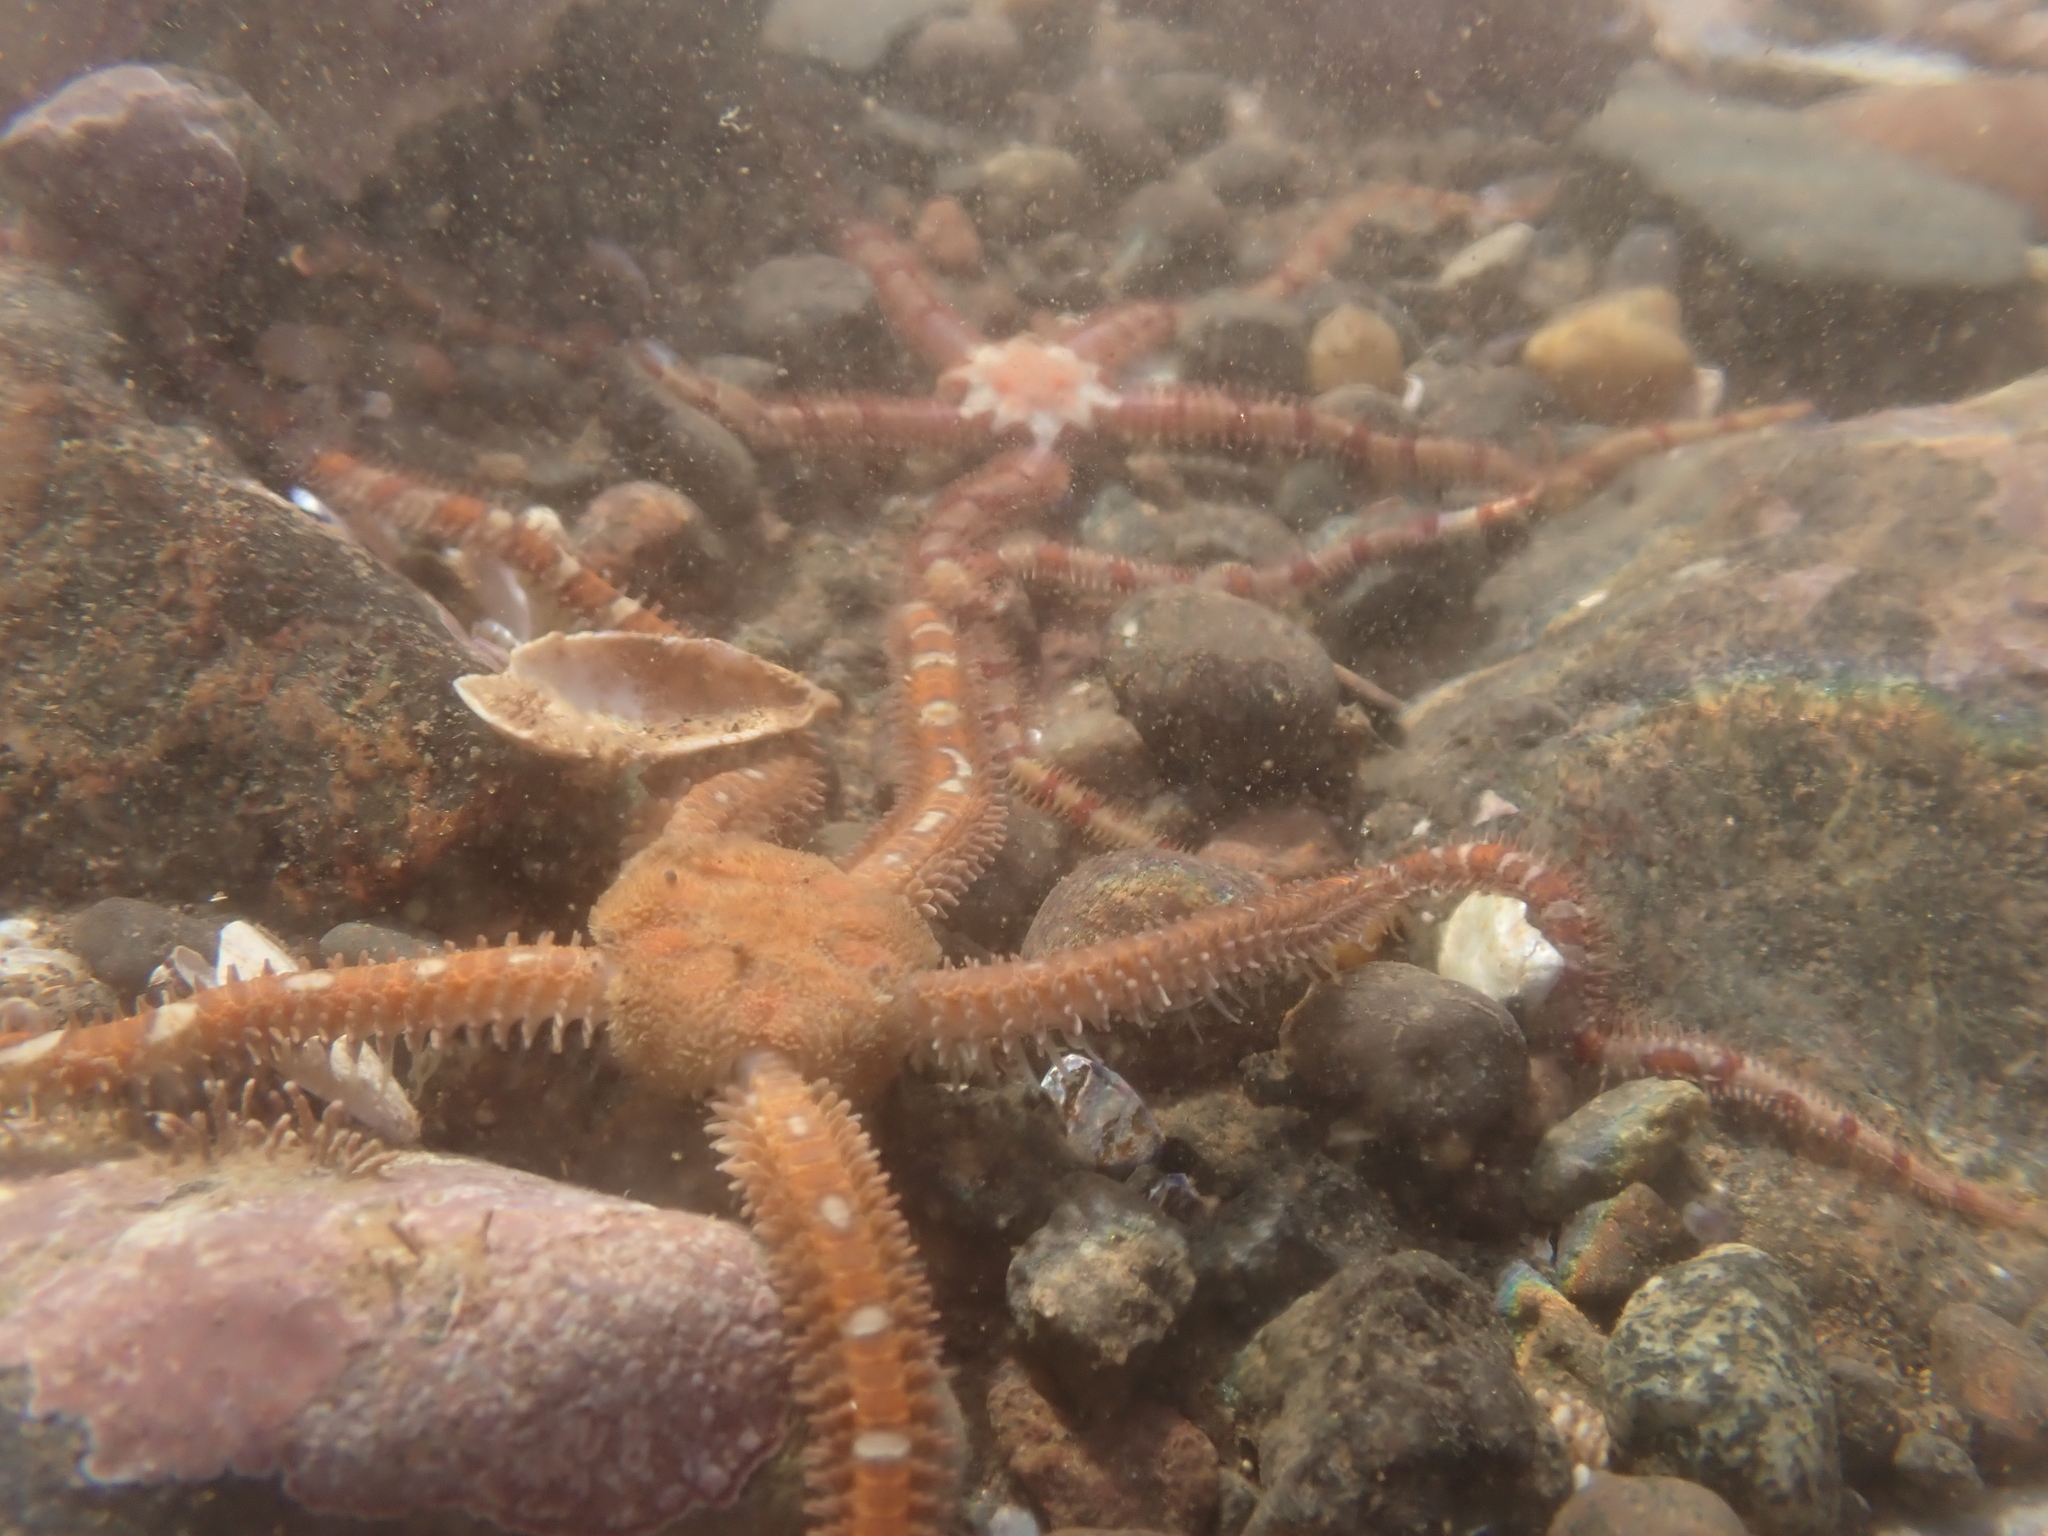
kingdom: Animalia
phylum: Echinodermata
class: Ophiuroidea
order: Amphilepidida
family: Ophiopholidae
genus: Ophiopholis
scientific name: Ophiopholis aculeata
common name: Crevice brittlestar
